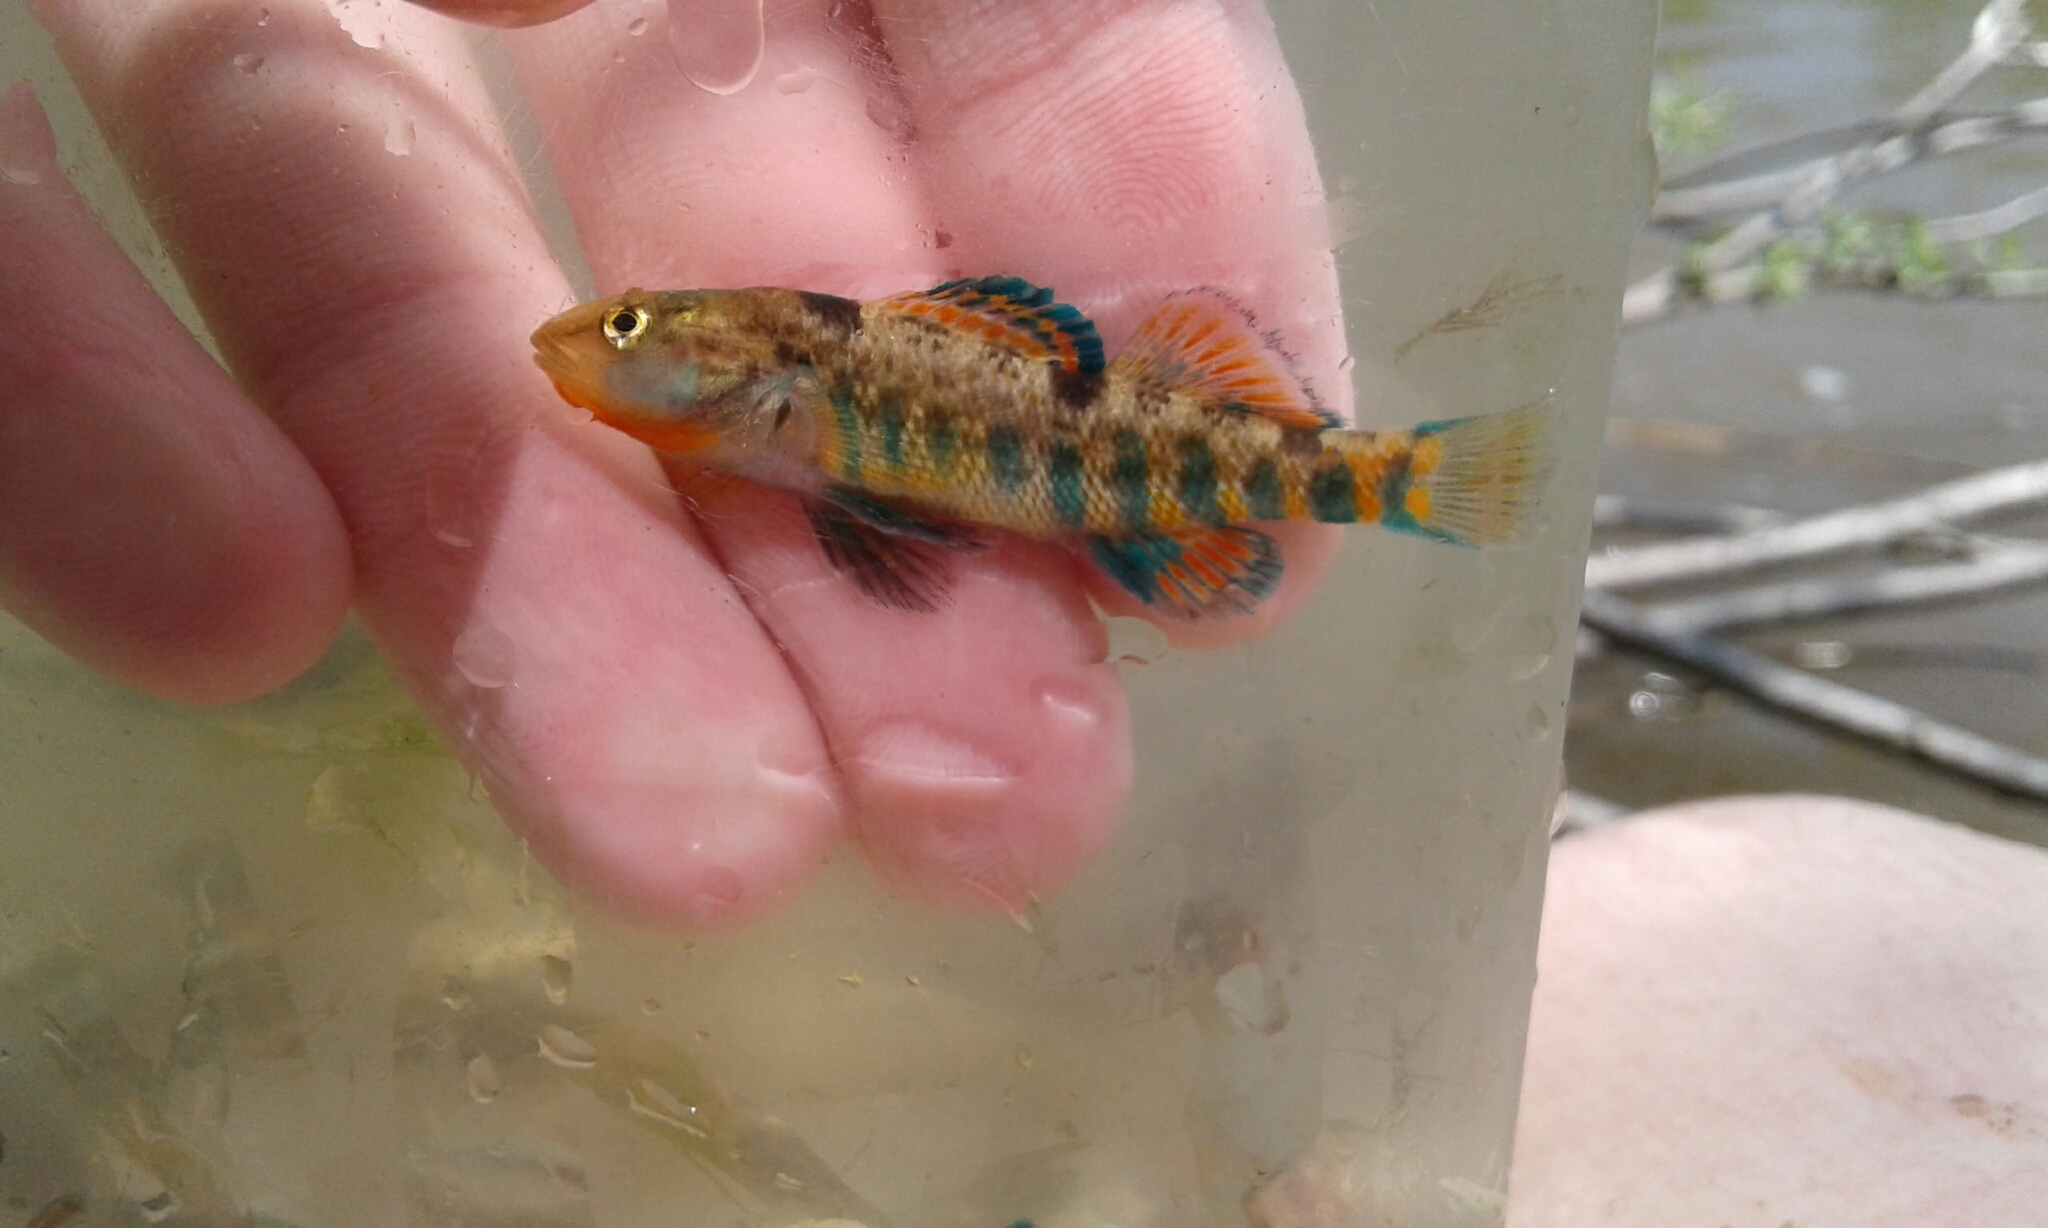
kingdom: Animalia
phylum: Chordata
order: Perciformes
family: Percidae
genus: Etheostoma
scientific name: Etheostoma caeruleum
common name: Rainbow darter
